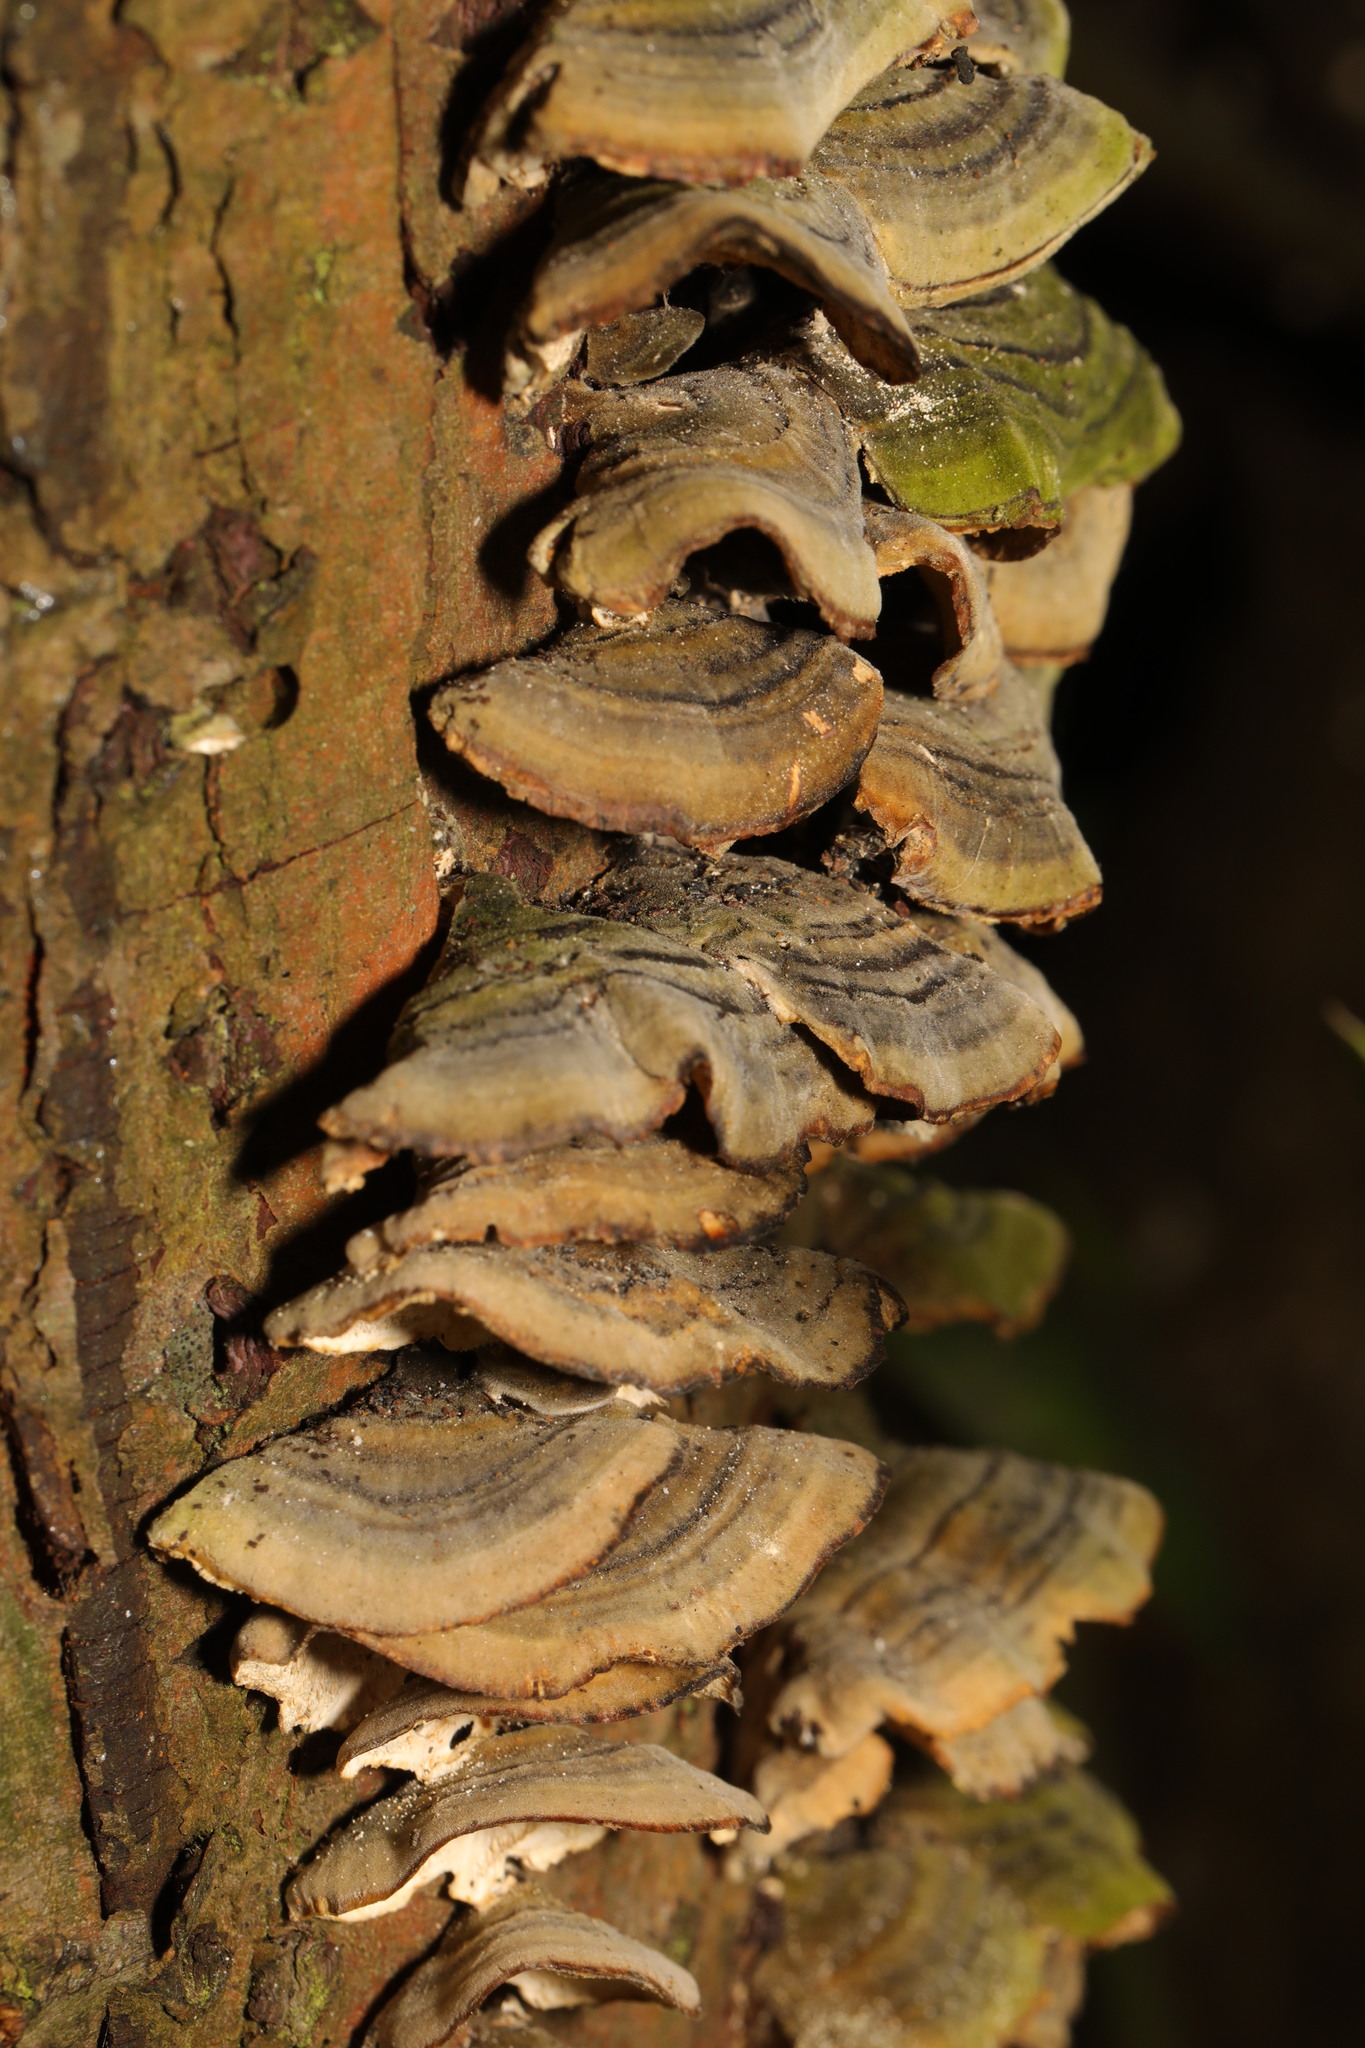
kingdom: Fungi
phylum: Basidiomycota
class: Agaricomycetes
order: Polyporales
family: Polyporaceae
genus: Trametes
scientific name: Trametes versicolor
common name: Turkeytail
